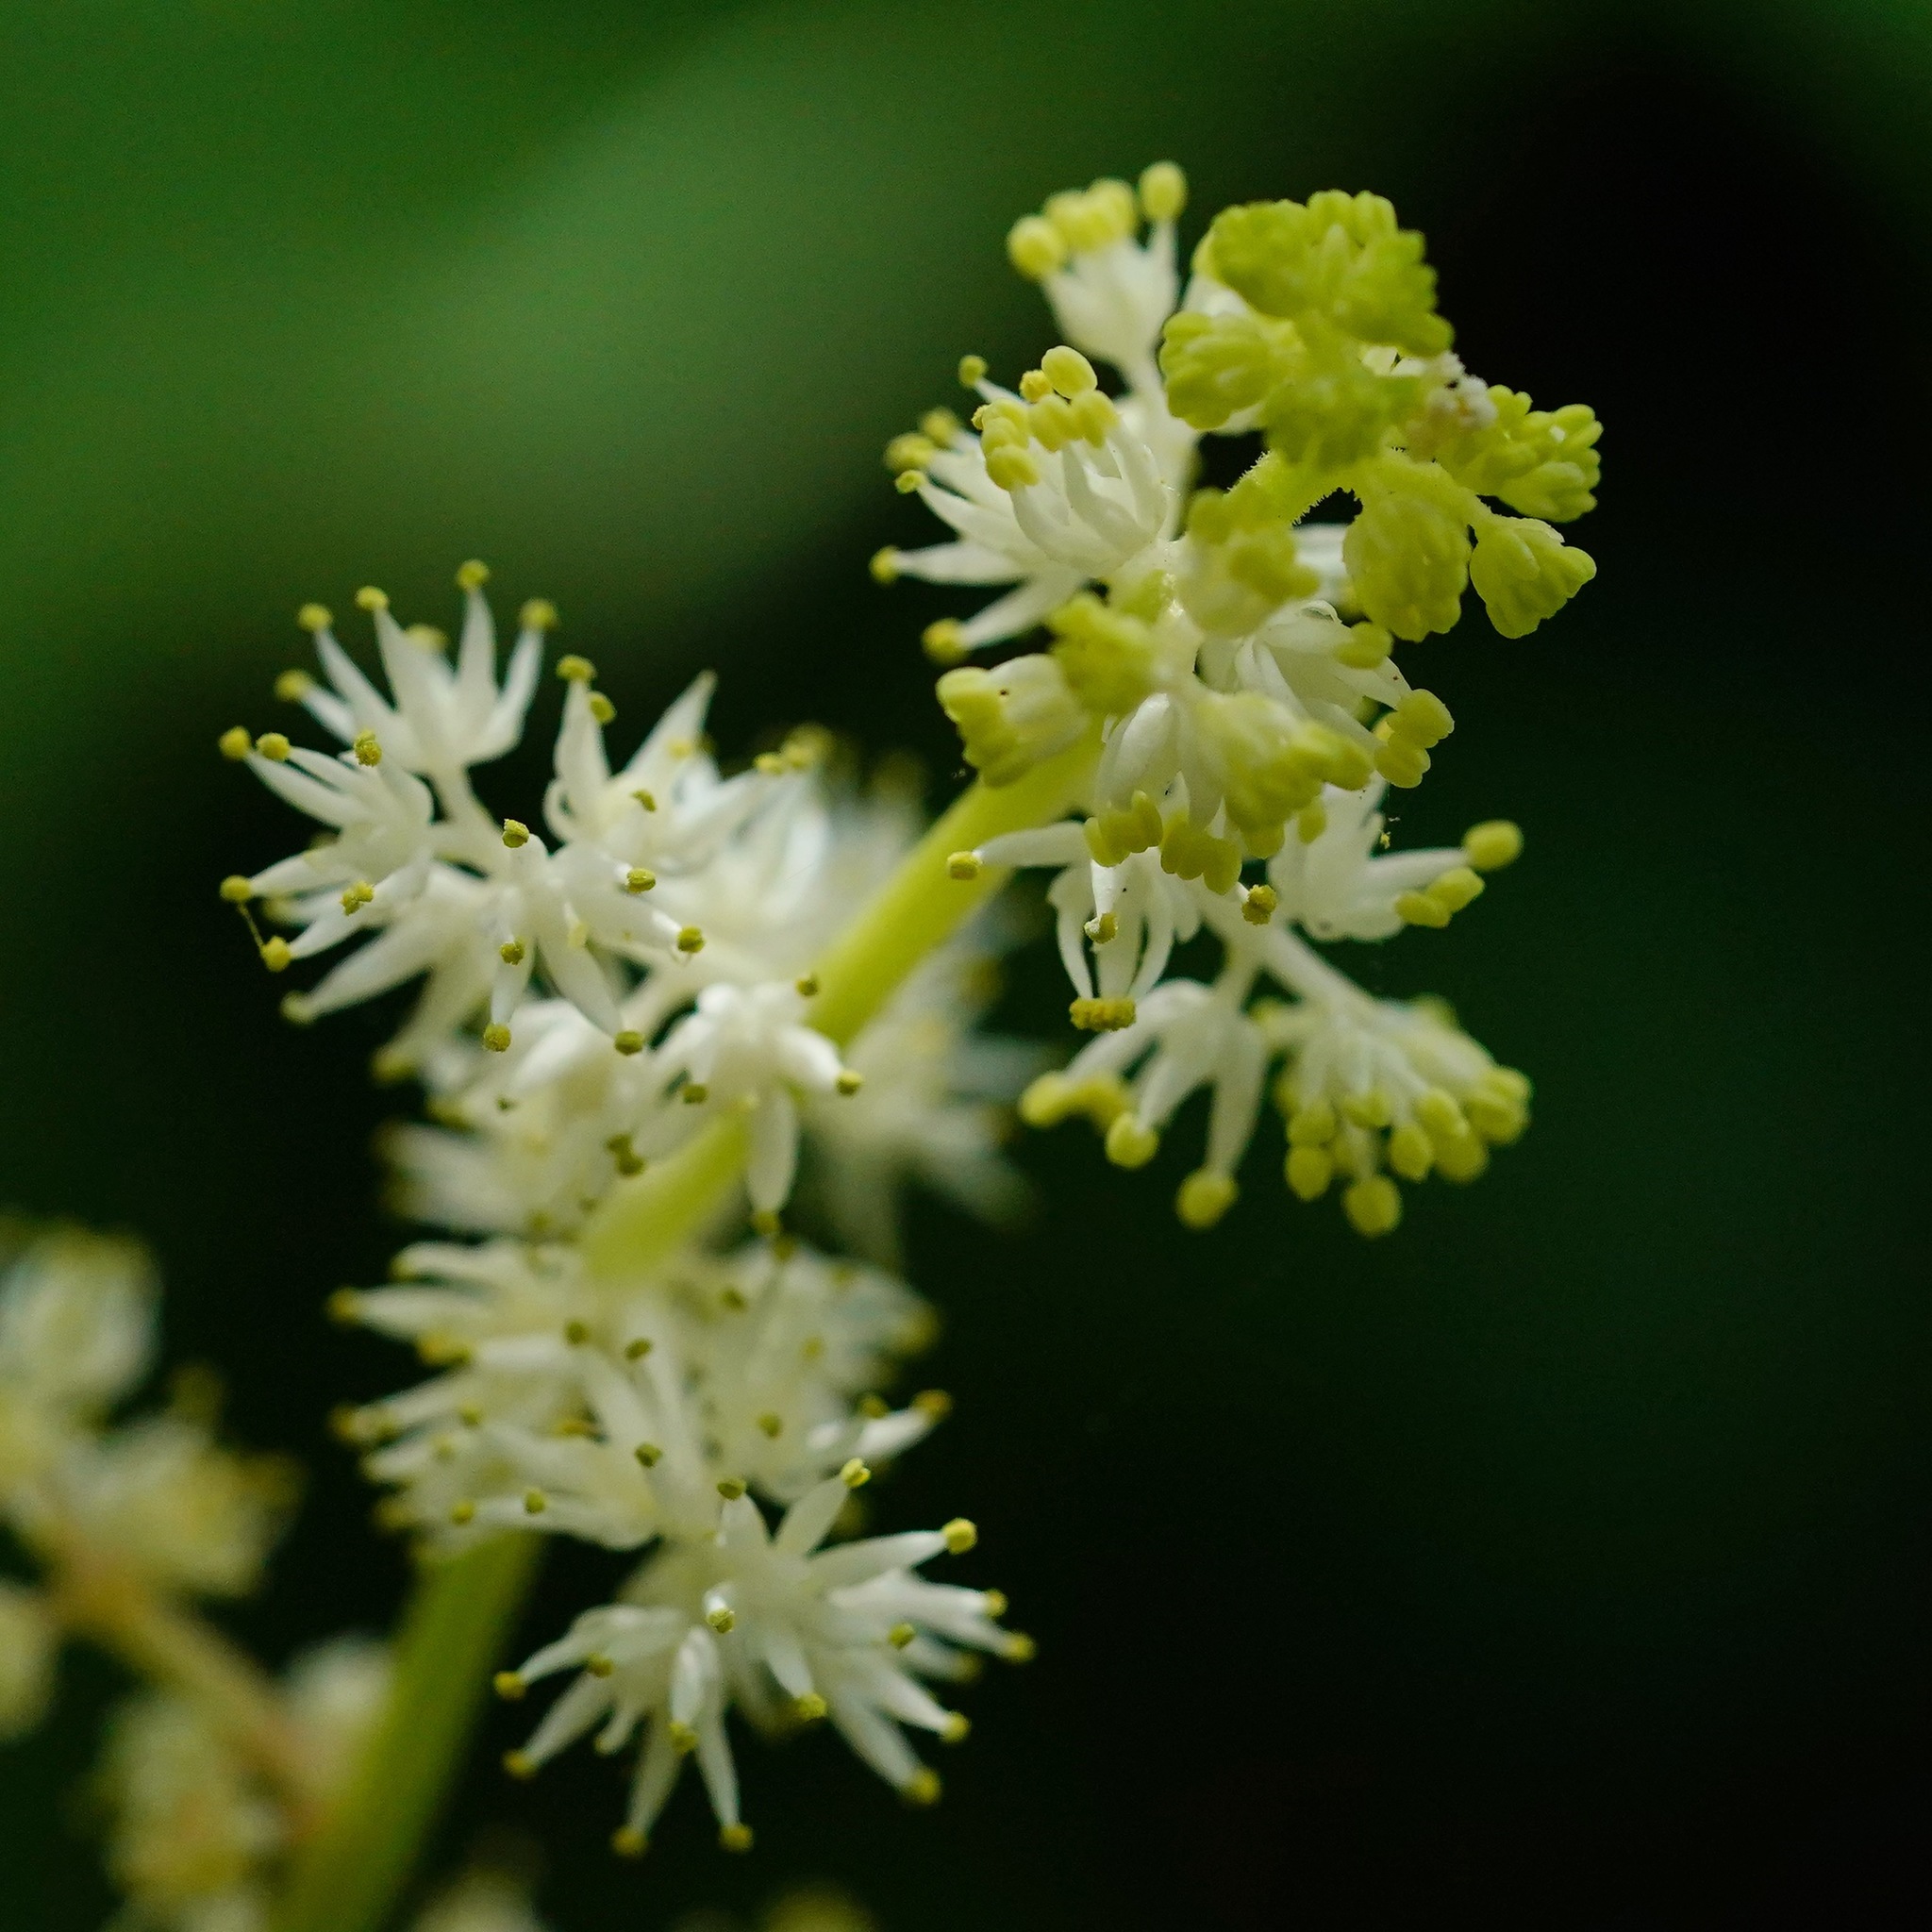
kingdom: Plantae
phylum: Tracheophyta
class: Liliopsida
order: Asparagales
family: Asparagaceae
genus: Maianthemum
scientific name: Maianthemum racemosum
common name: False spikenard
